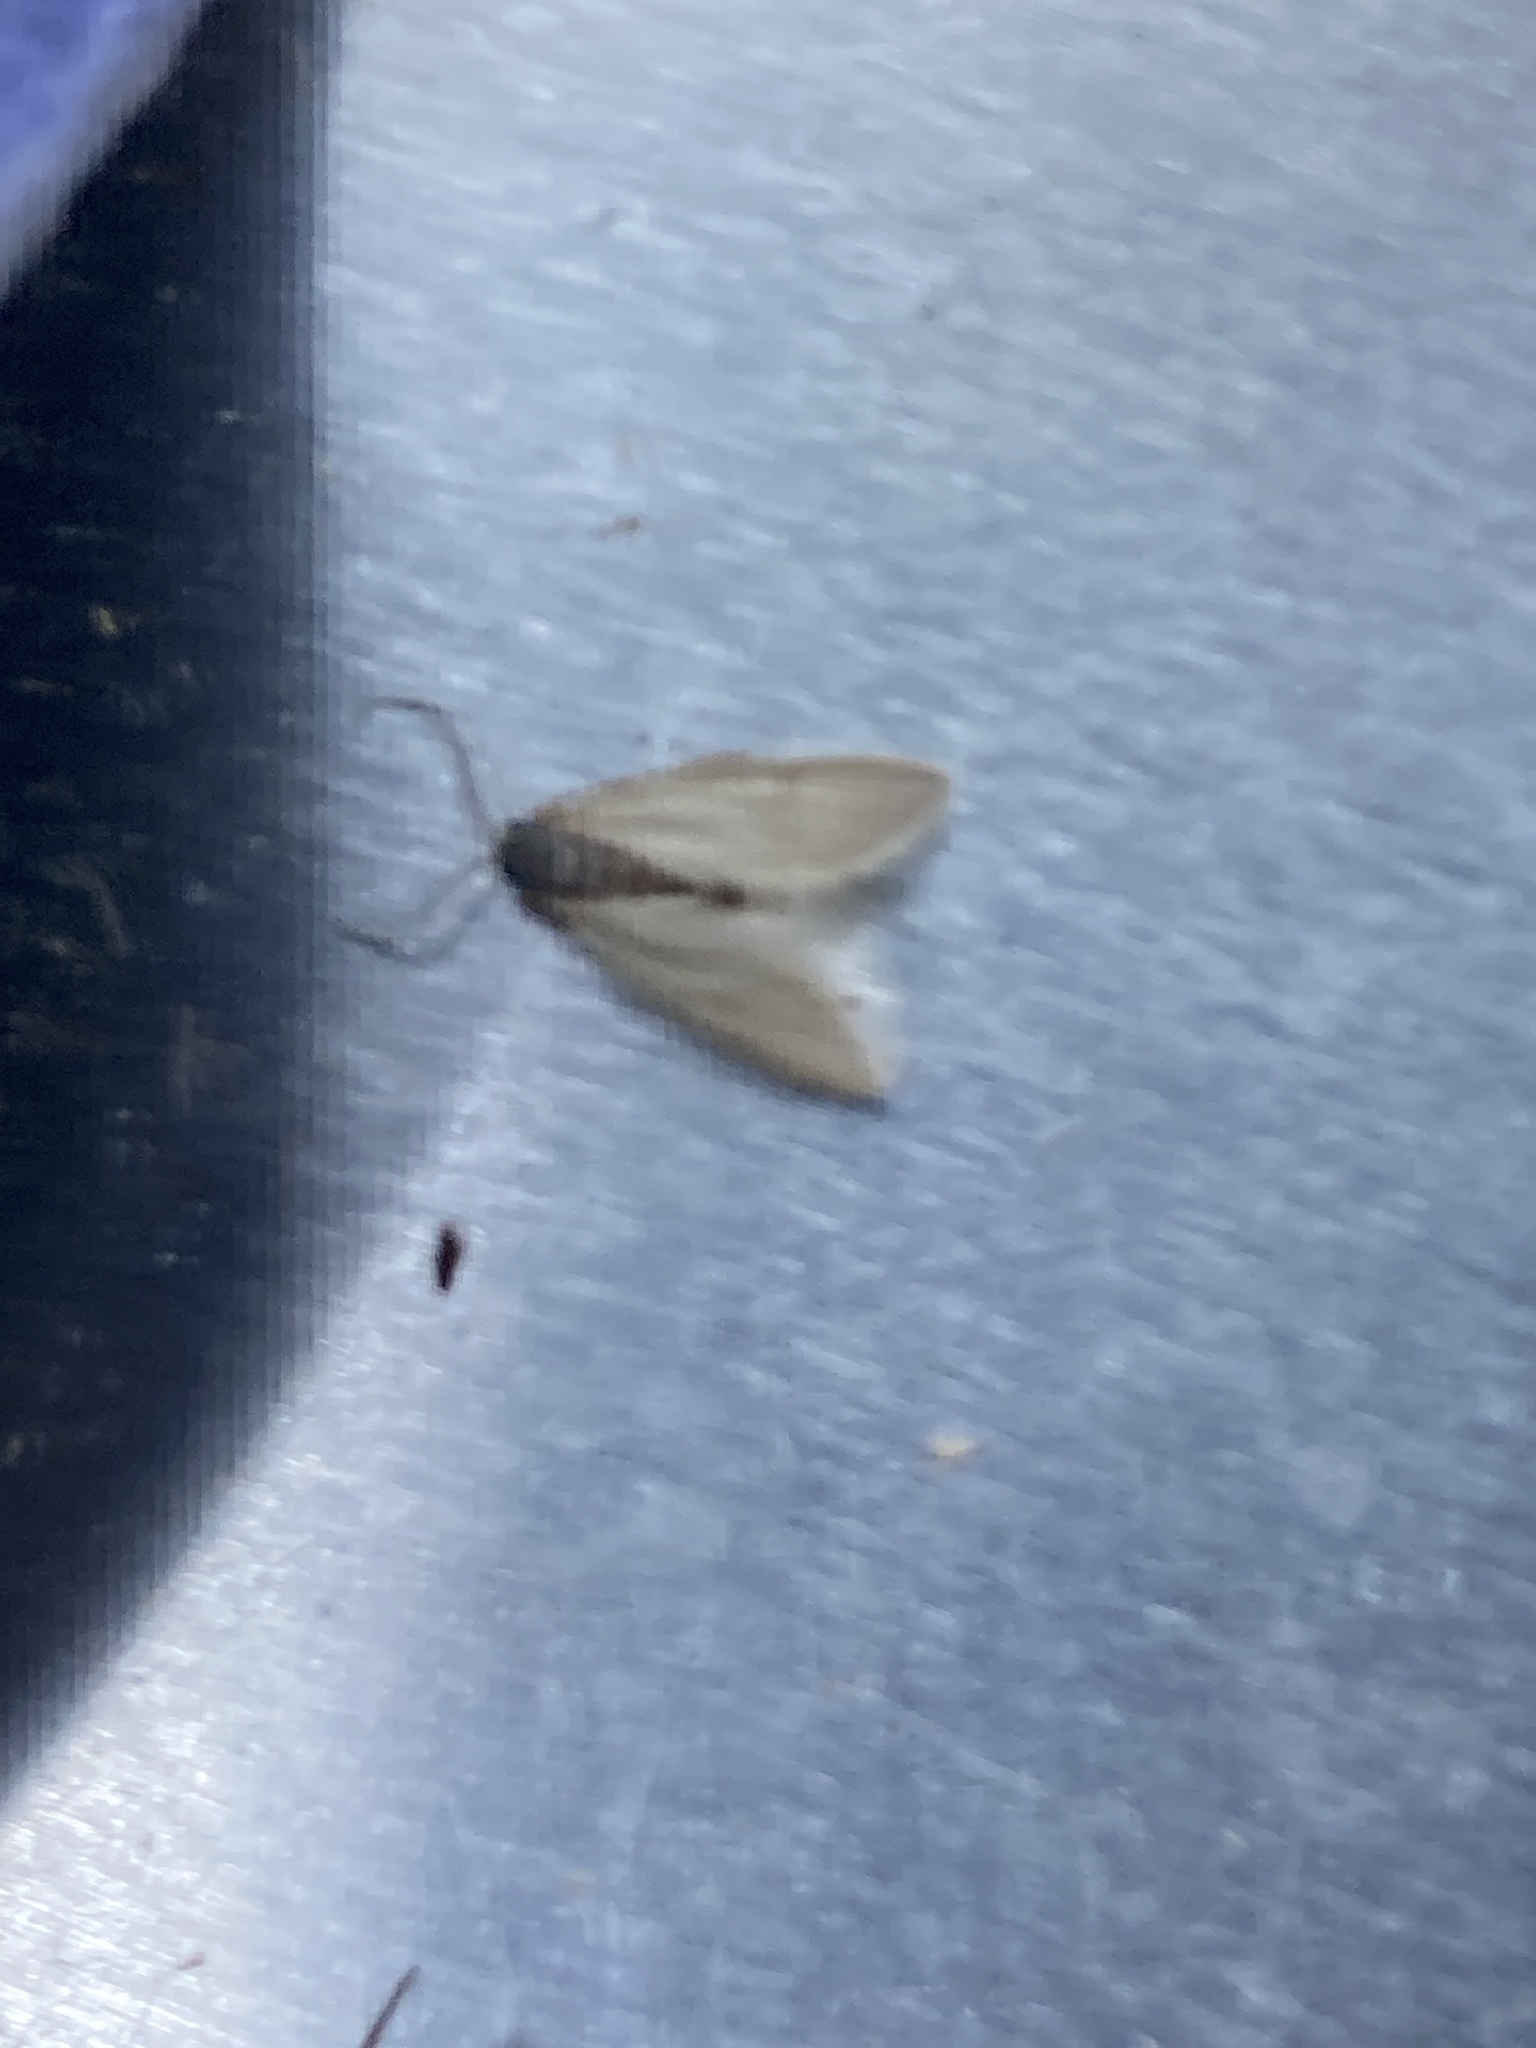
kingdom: Animalia
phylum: Arthropoda
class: Insecta
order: Lepidoptera
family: Crambidae
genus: Acentria
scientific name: Acentria ephemerella
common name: European water moth
